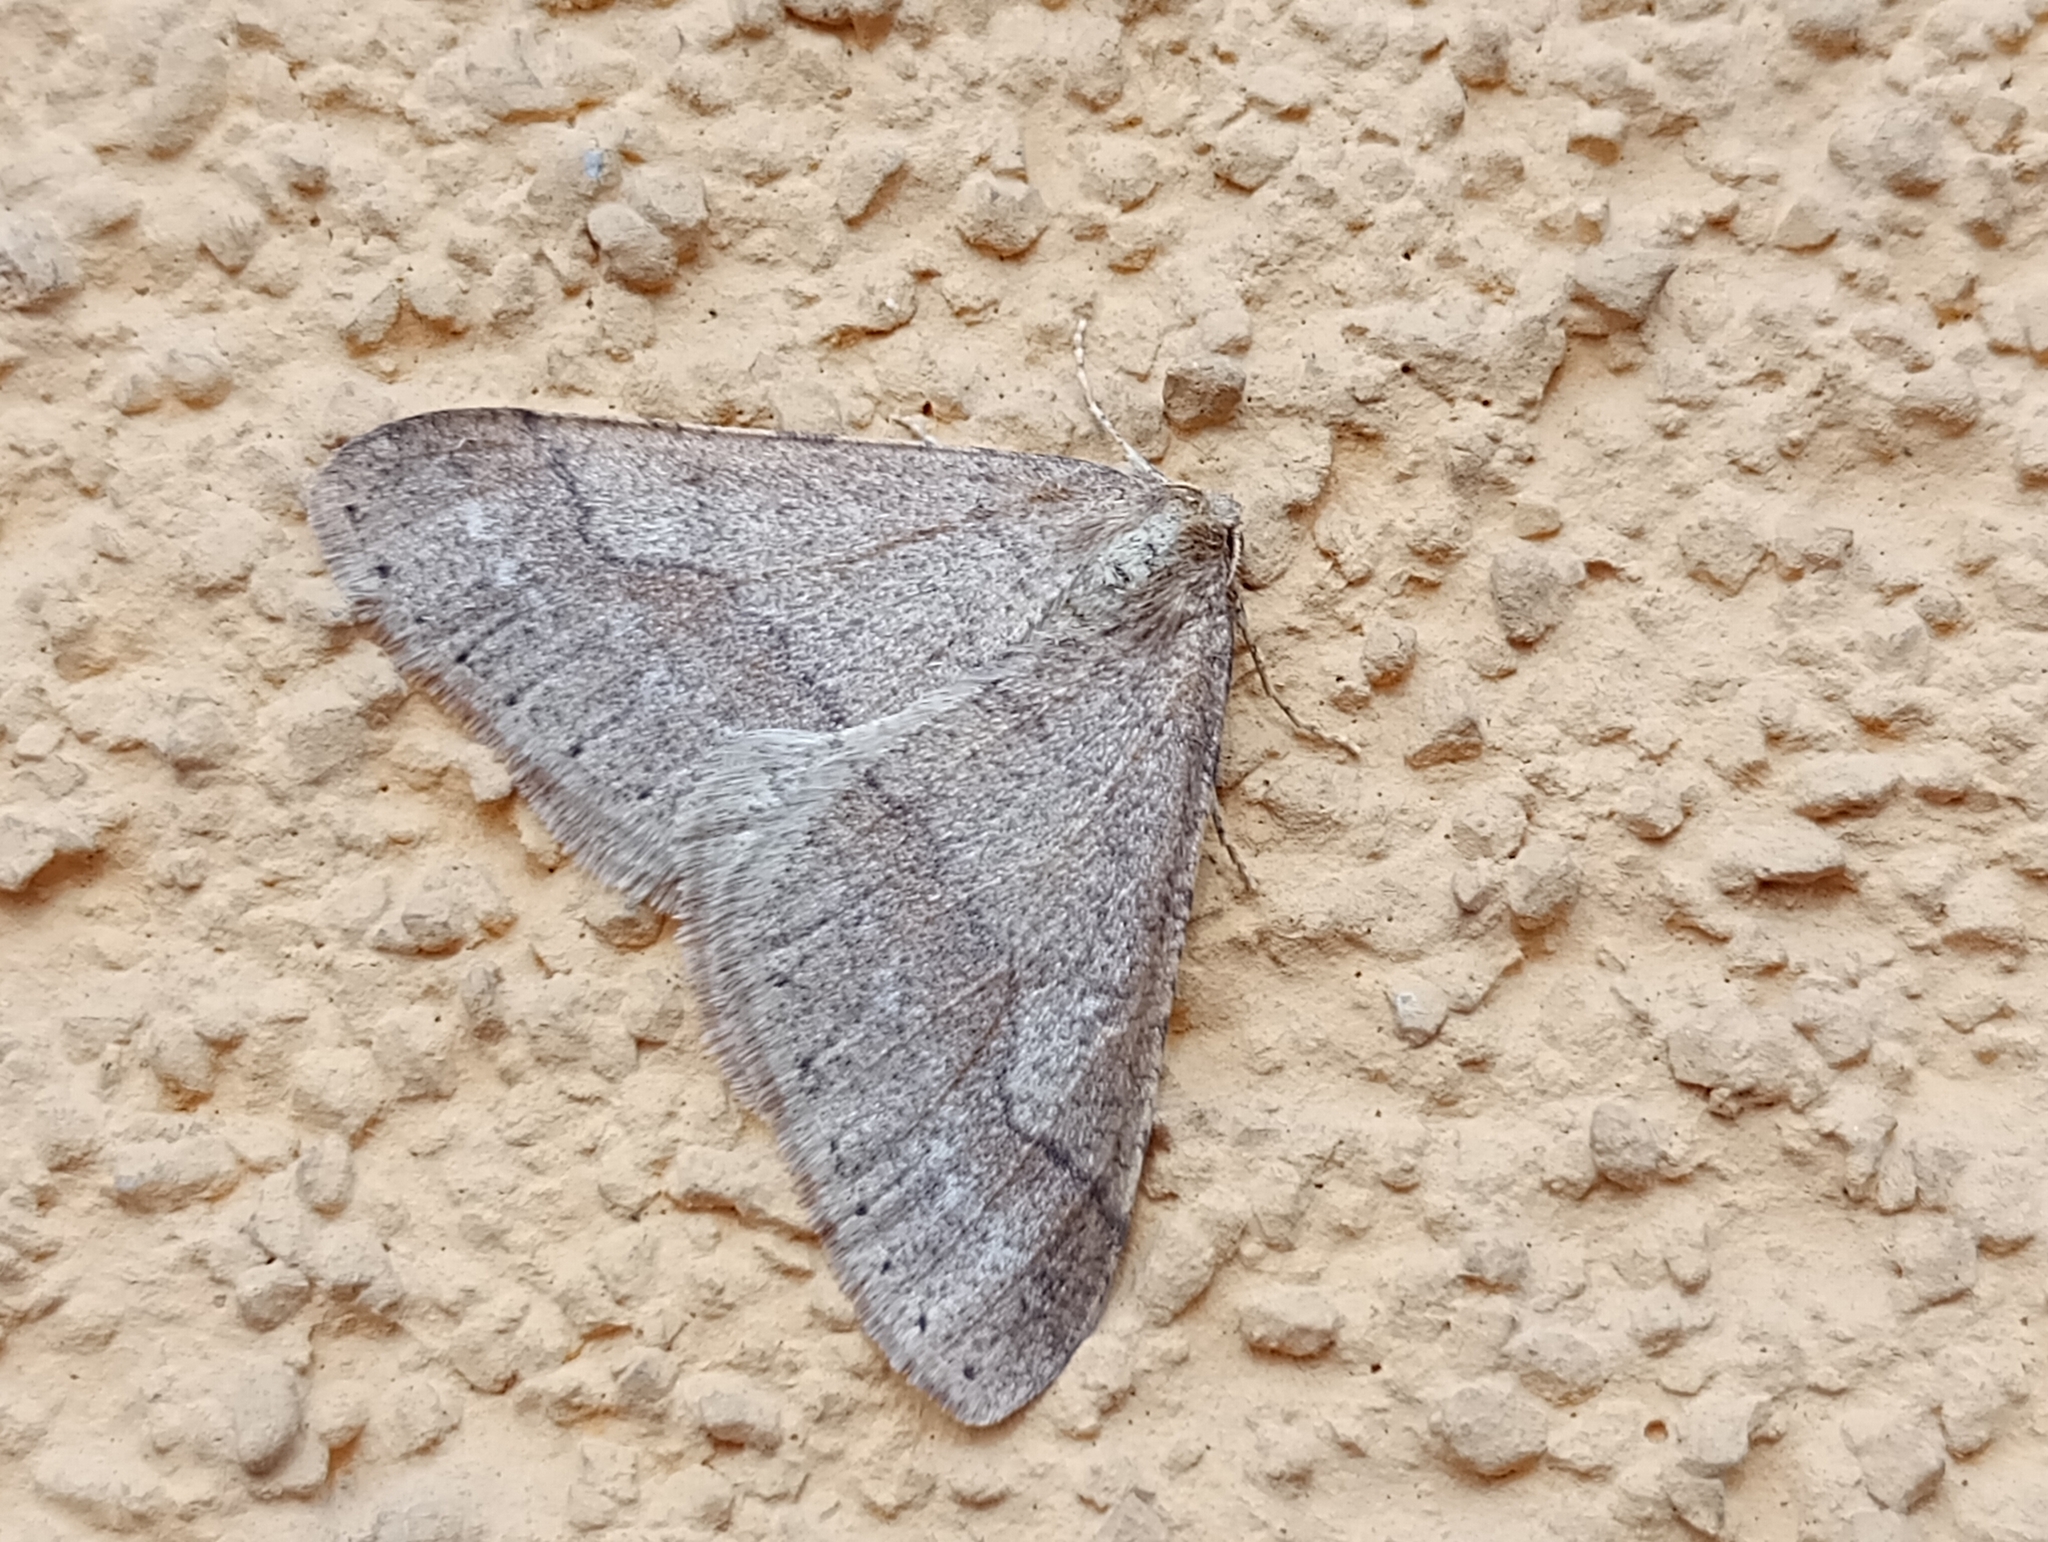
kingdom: Animalia
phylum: Arthropoda
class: Insecta
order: Lepidoptera
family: Geometridae
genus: Agriopis
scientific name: Agriopis marginaria
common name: Dotted border
